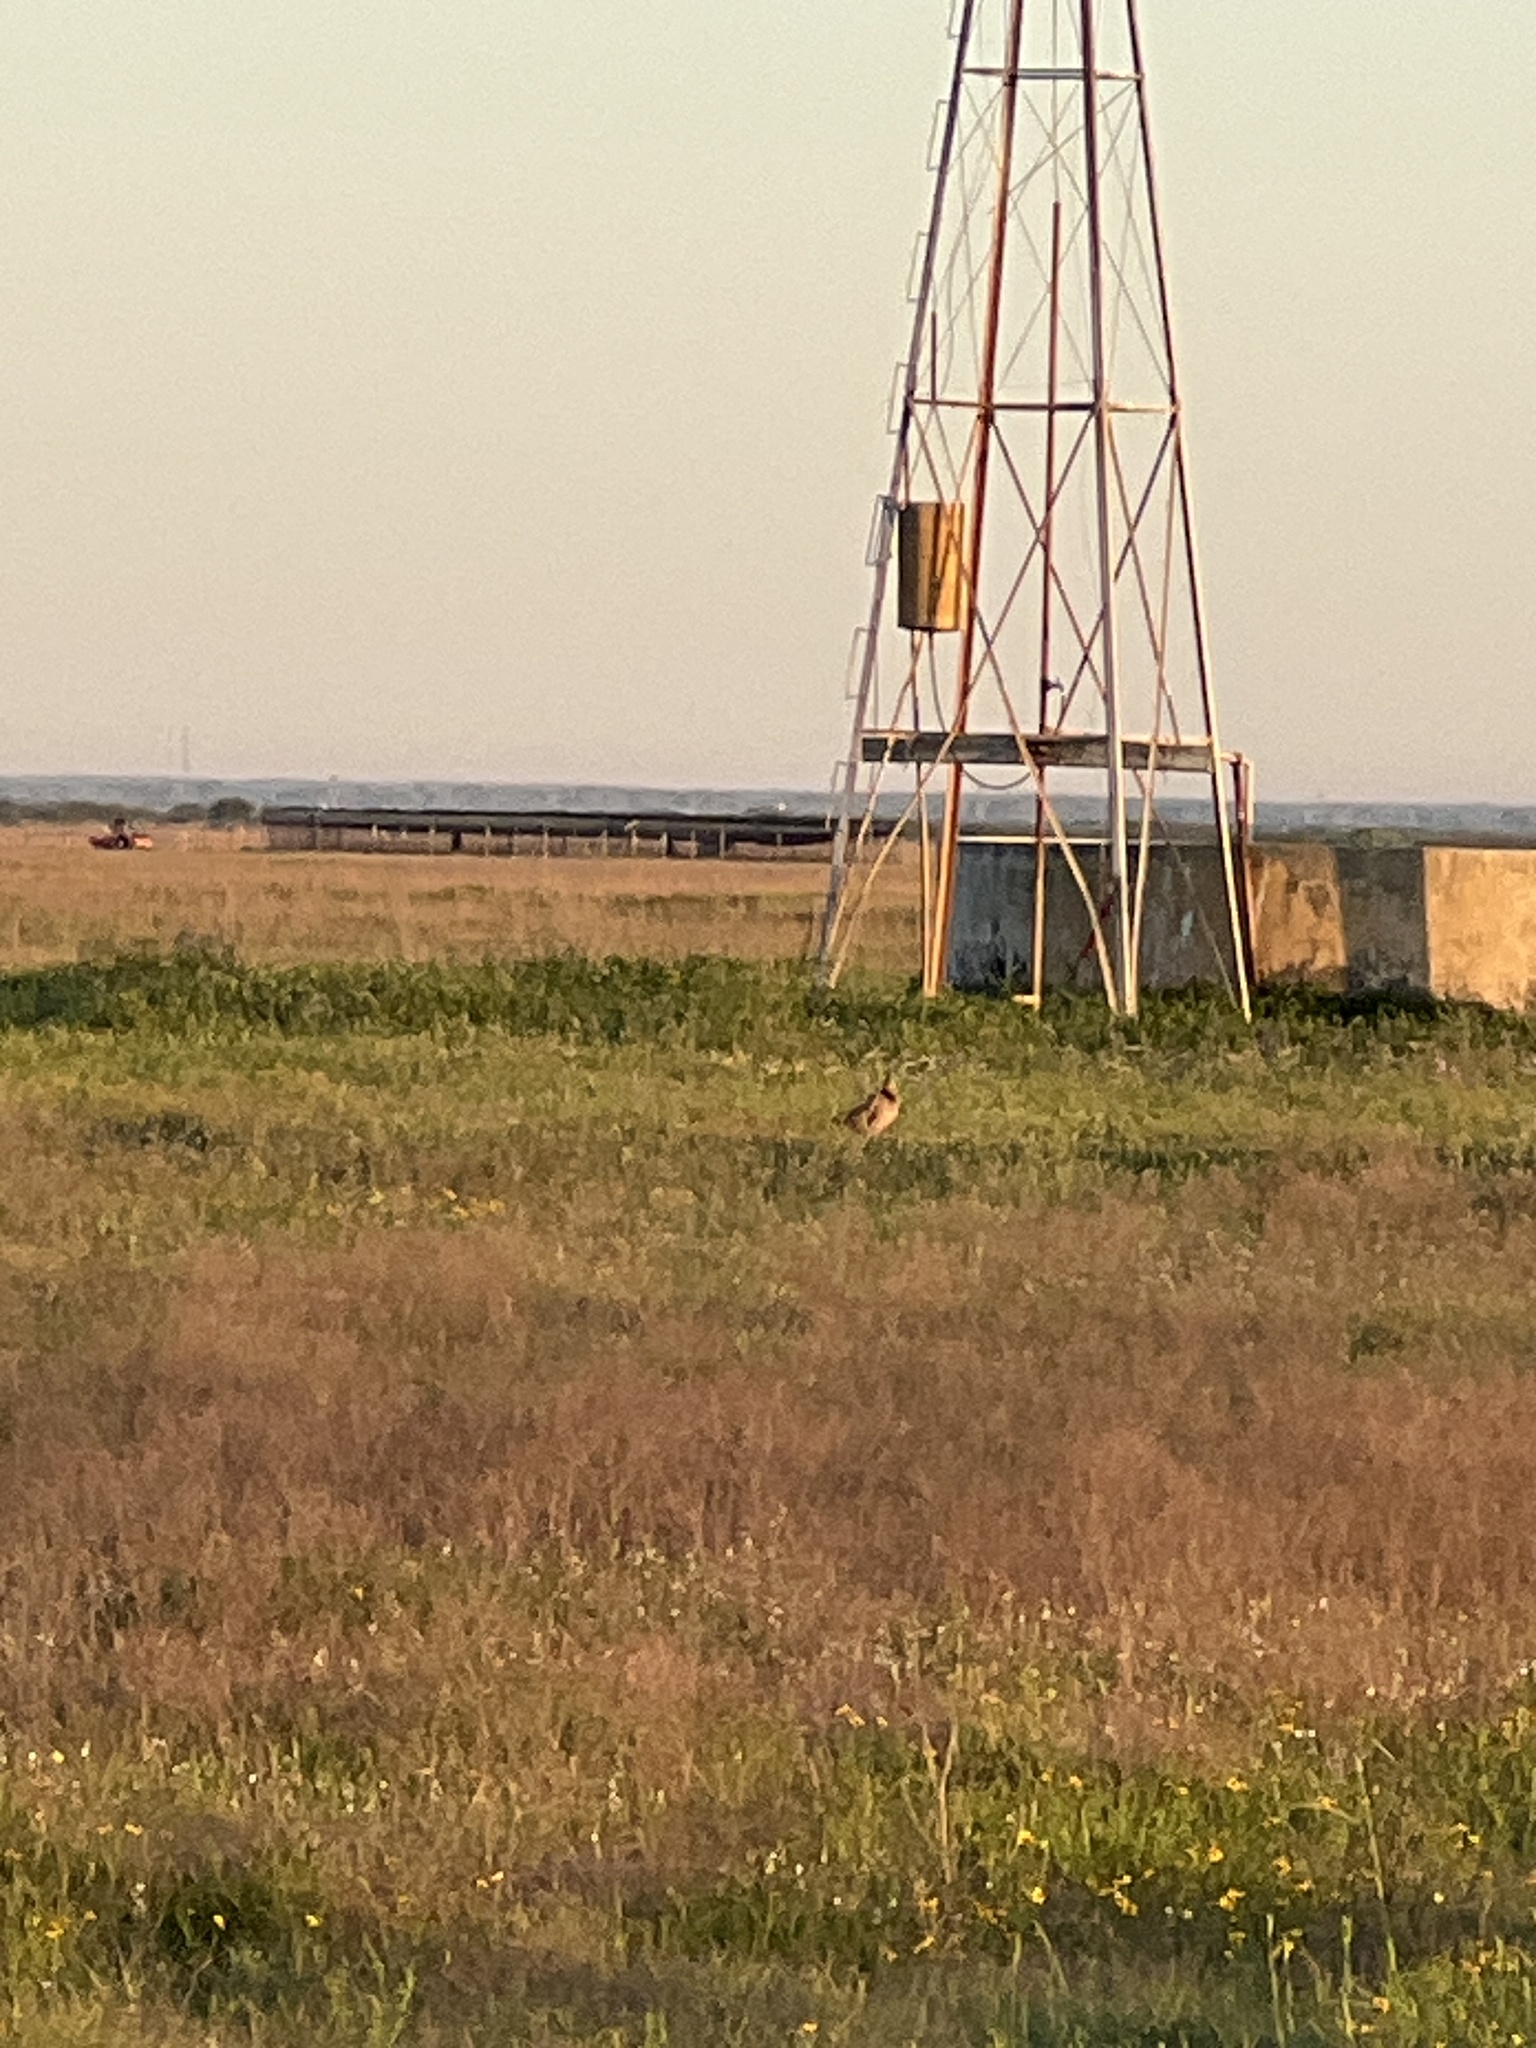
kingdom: Animalia
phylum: Chordata
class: Aves
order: Galliformes
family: Phasianidae
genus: Tympanuchus
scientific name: Tympanuchus cupido
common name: Greater prairie chicken
